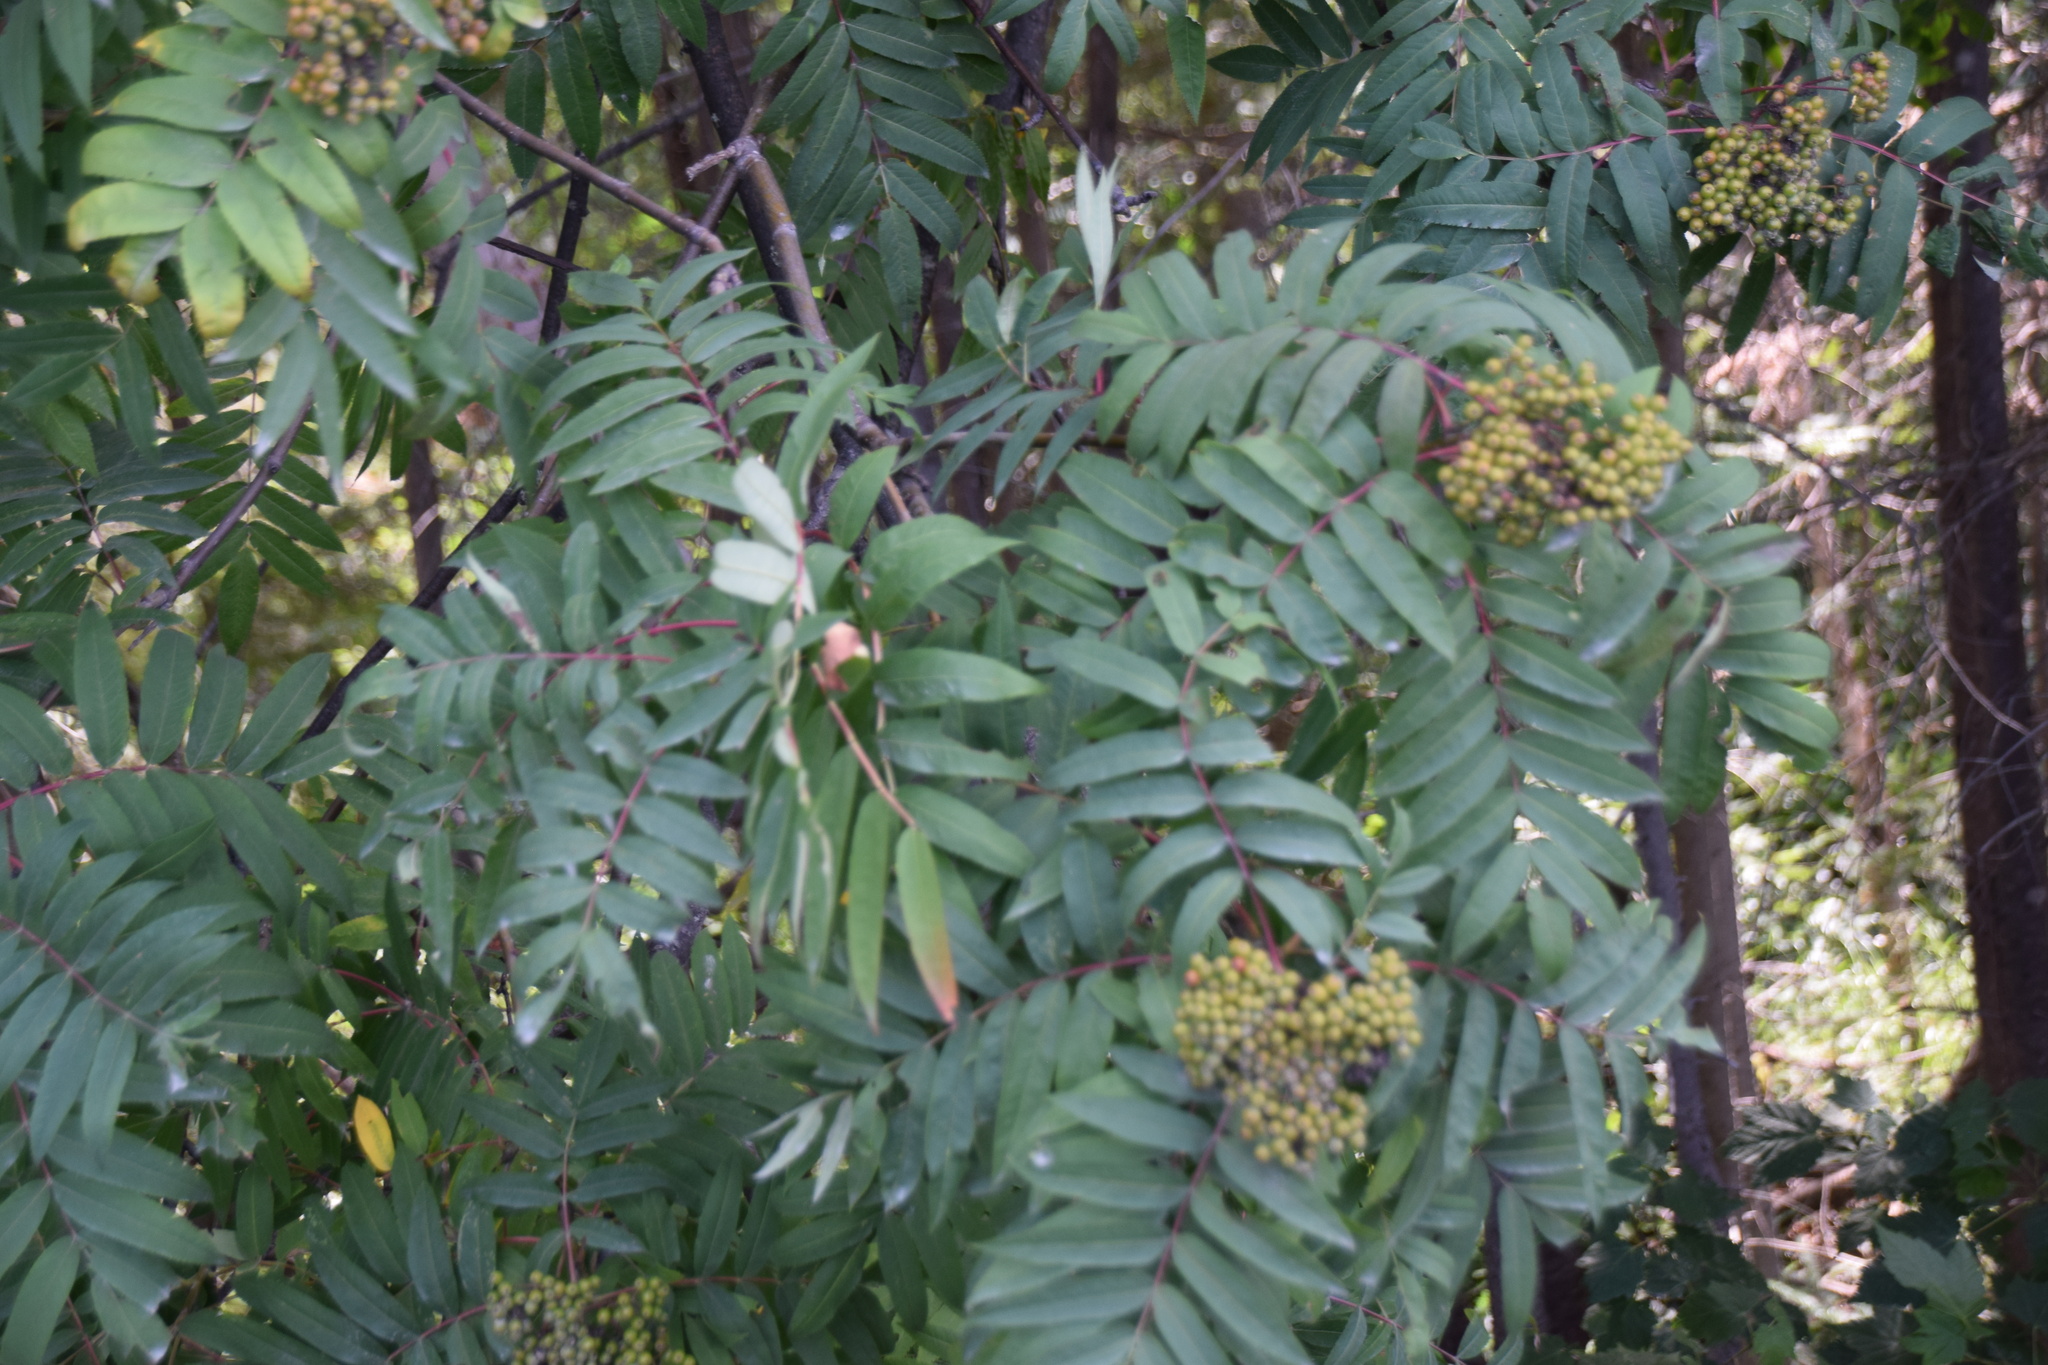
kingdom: Plantae
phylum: Tracheophyta
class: Magnoliopsida
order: Rosales
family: Rosaceae
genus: Sorbus
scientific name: Sorbus americana
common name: American mountain-ash
